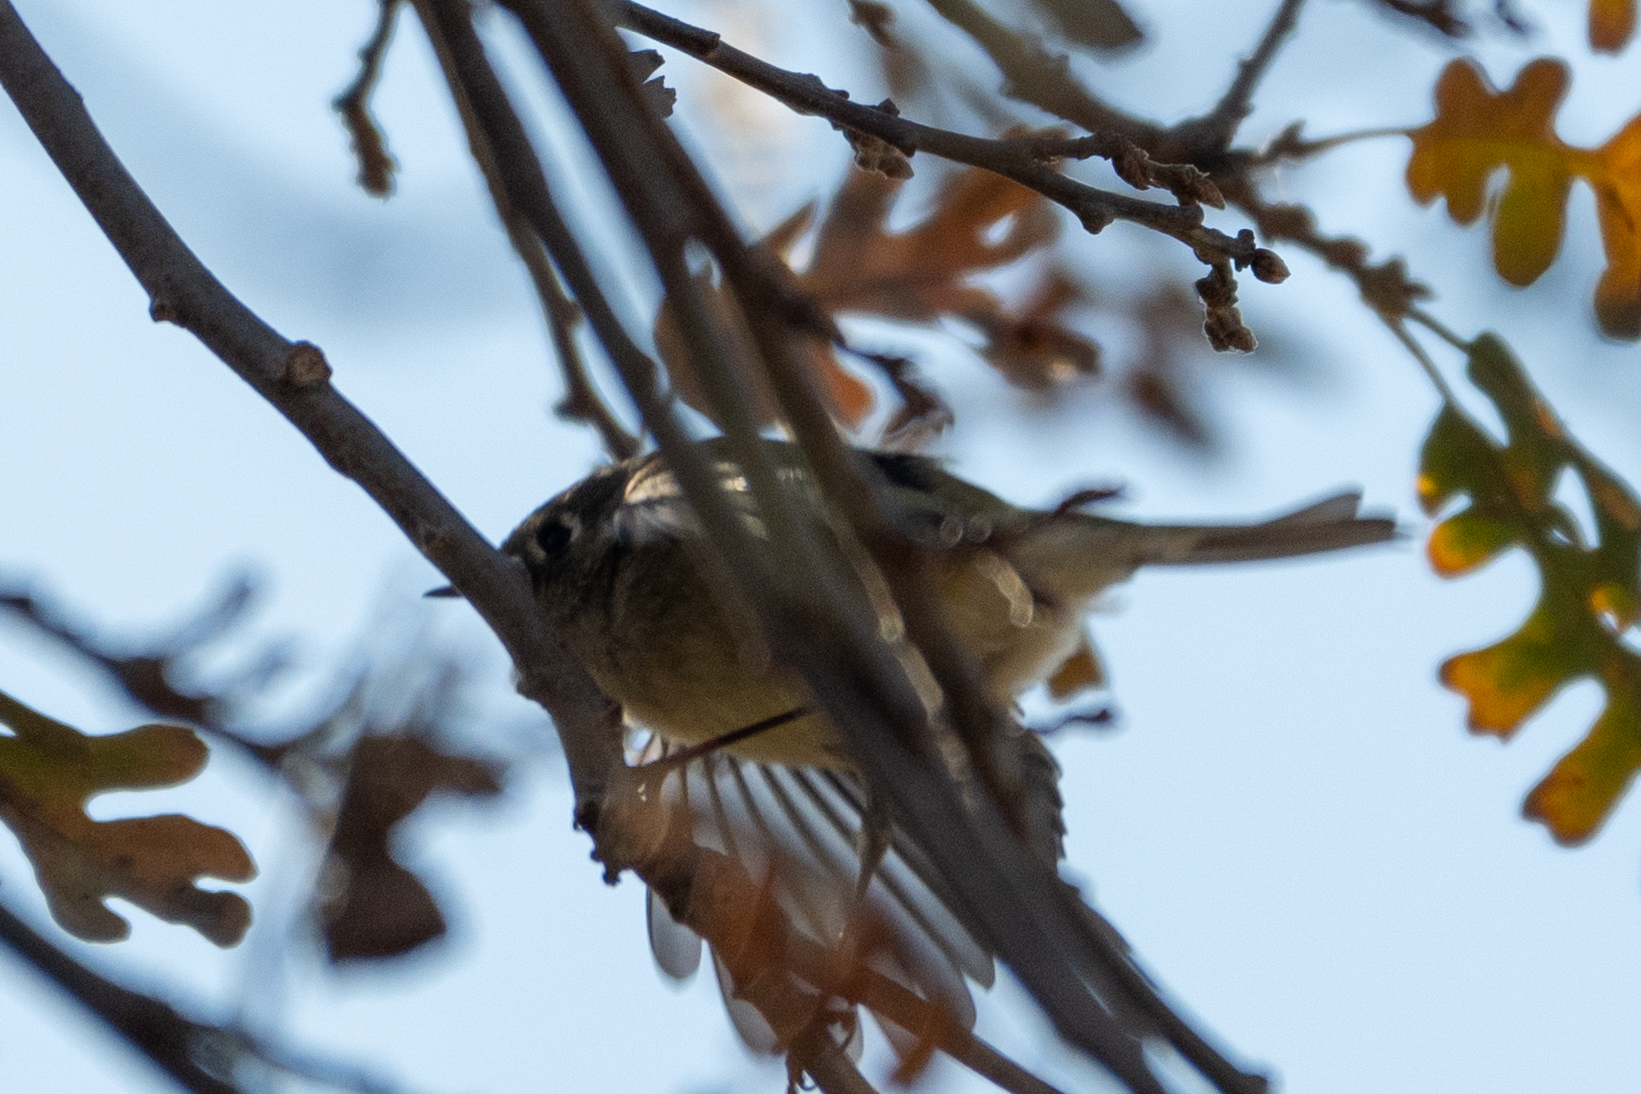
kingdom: Animalia
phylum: Chordata
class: Aves
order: Passeriformes
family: Regulidae
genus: Regulus
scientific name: Regulus calendula
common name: Ruby-crowned kinglet
